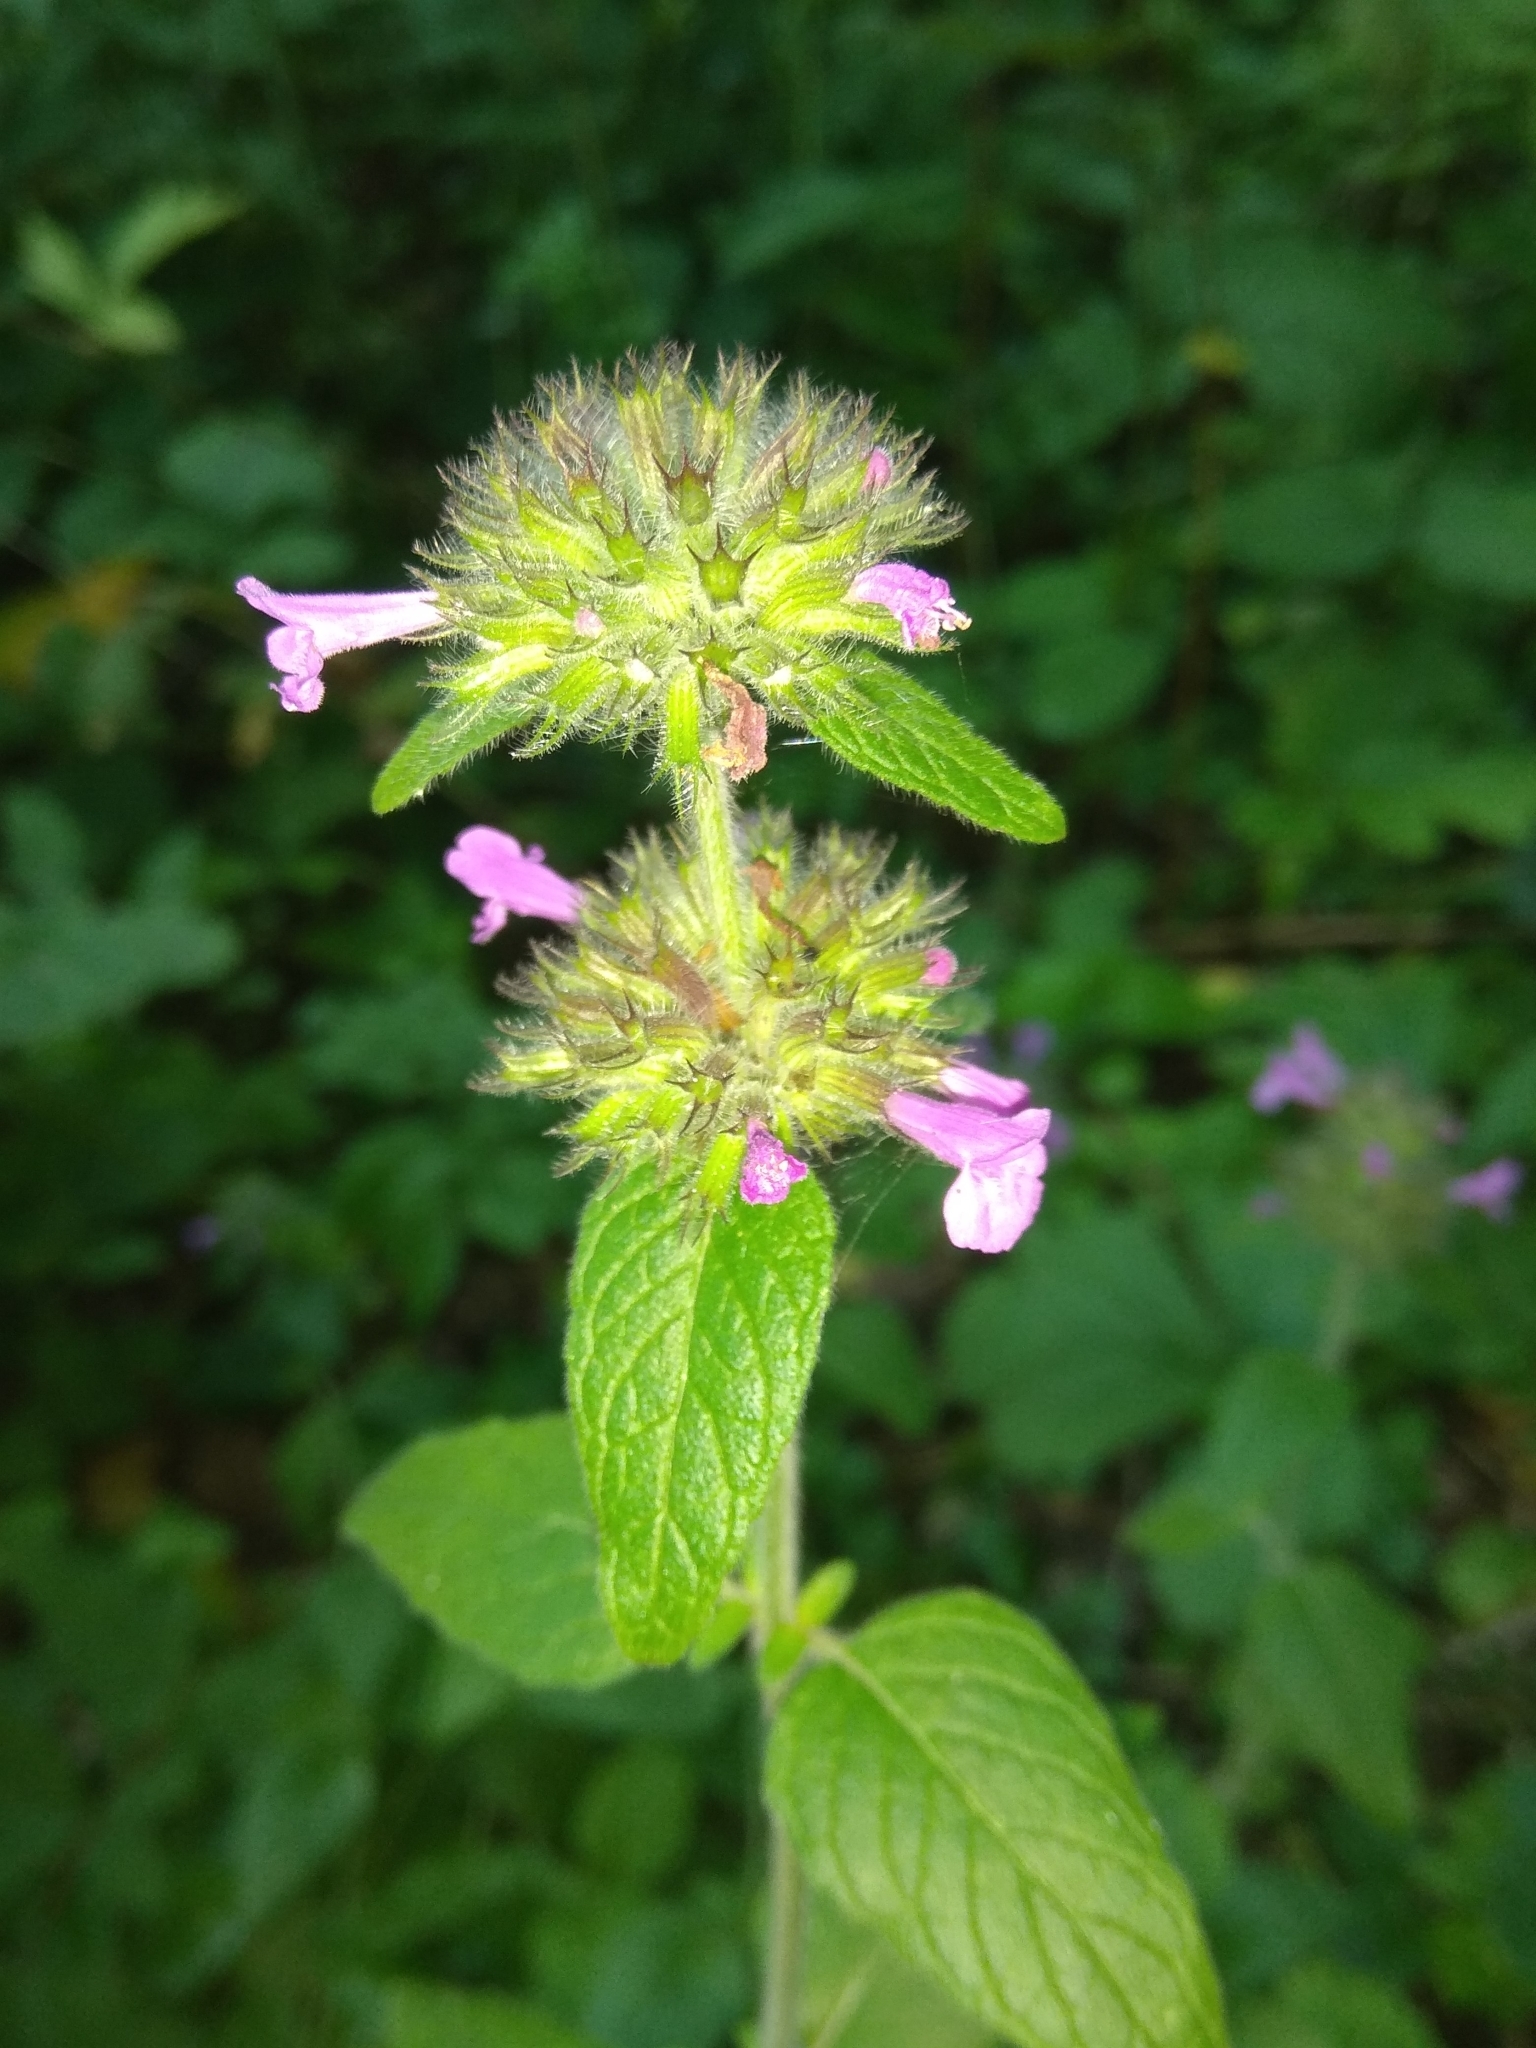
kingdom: Plantae
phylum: Tracheophyta
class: Magnoliopsida
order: Lamiales
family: Lamiaceae
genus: Clinopodium
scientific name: Clinopodium vulgare
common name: Wild basil
